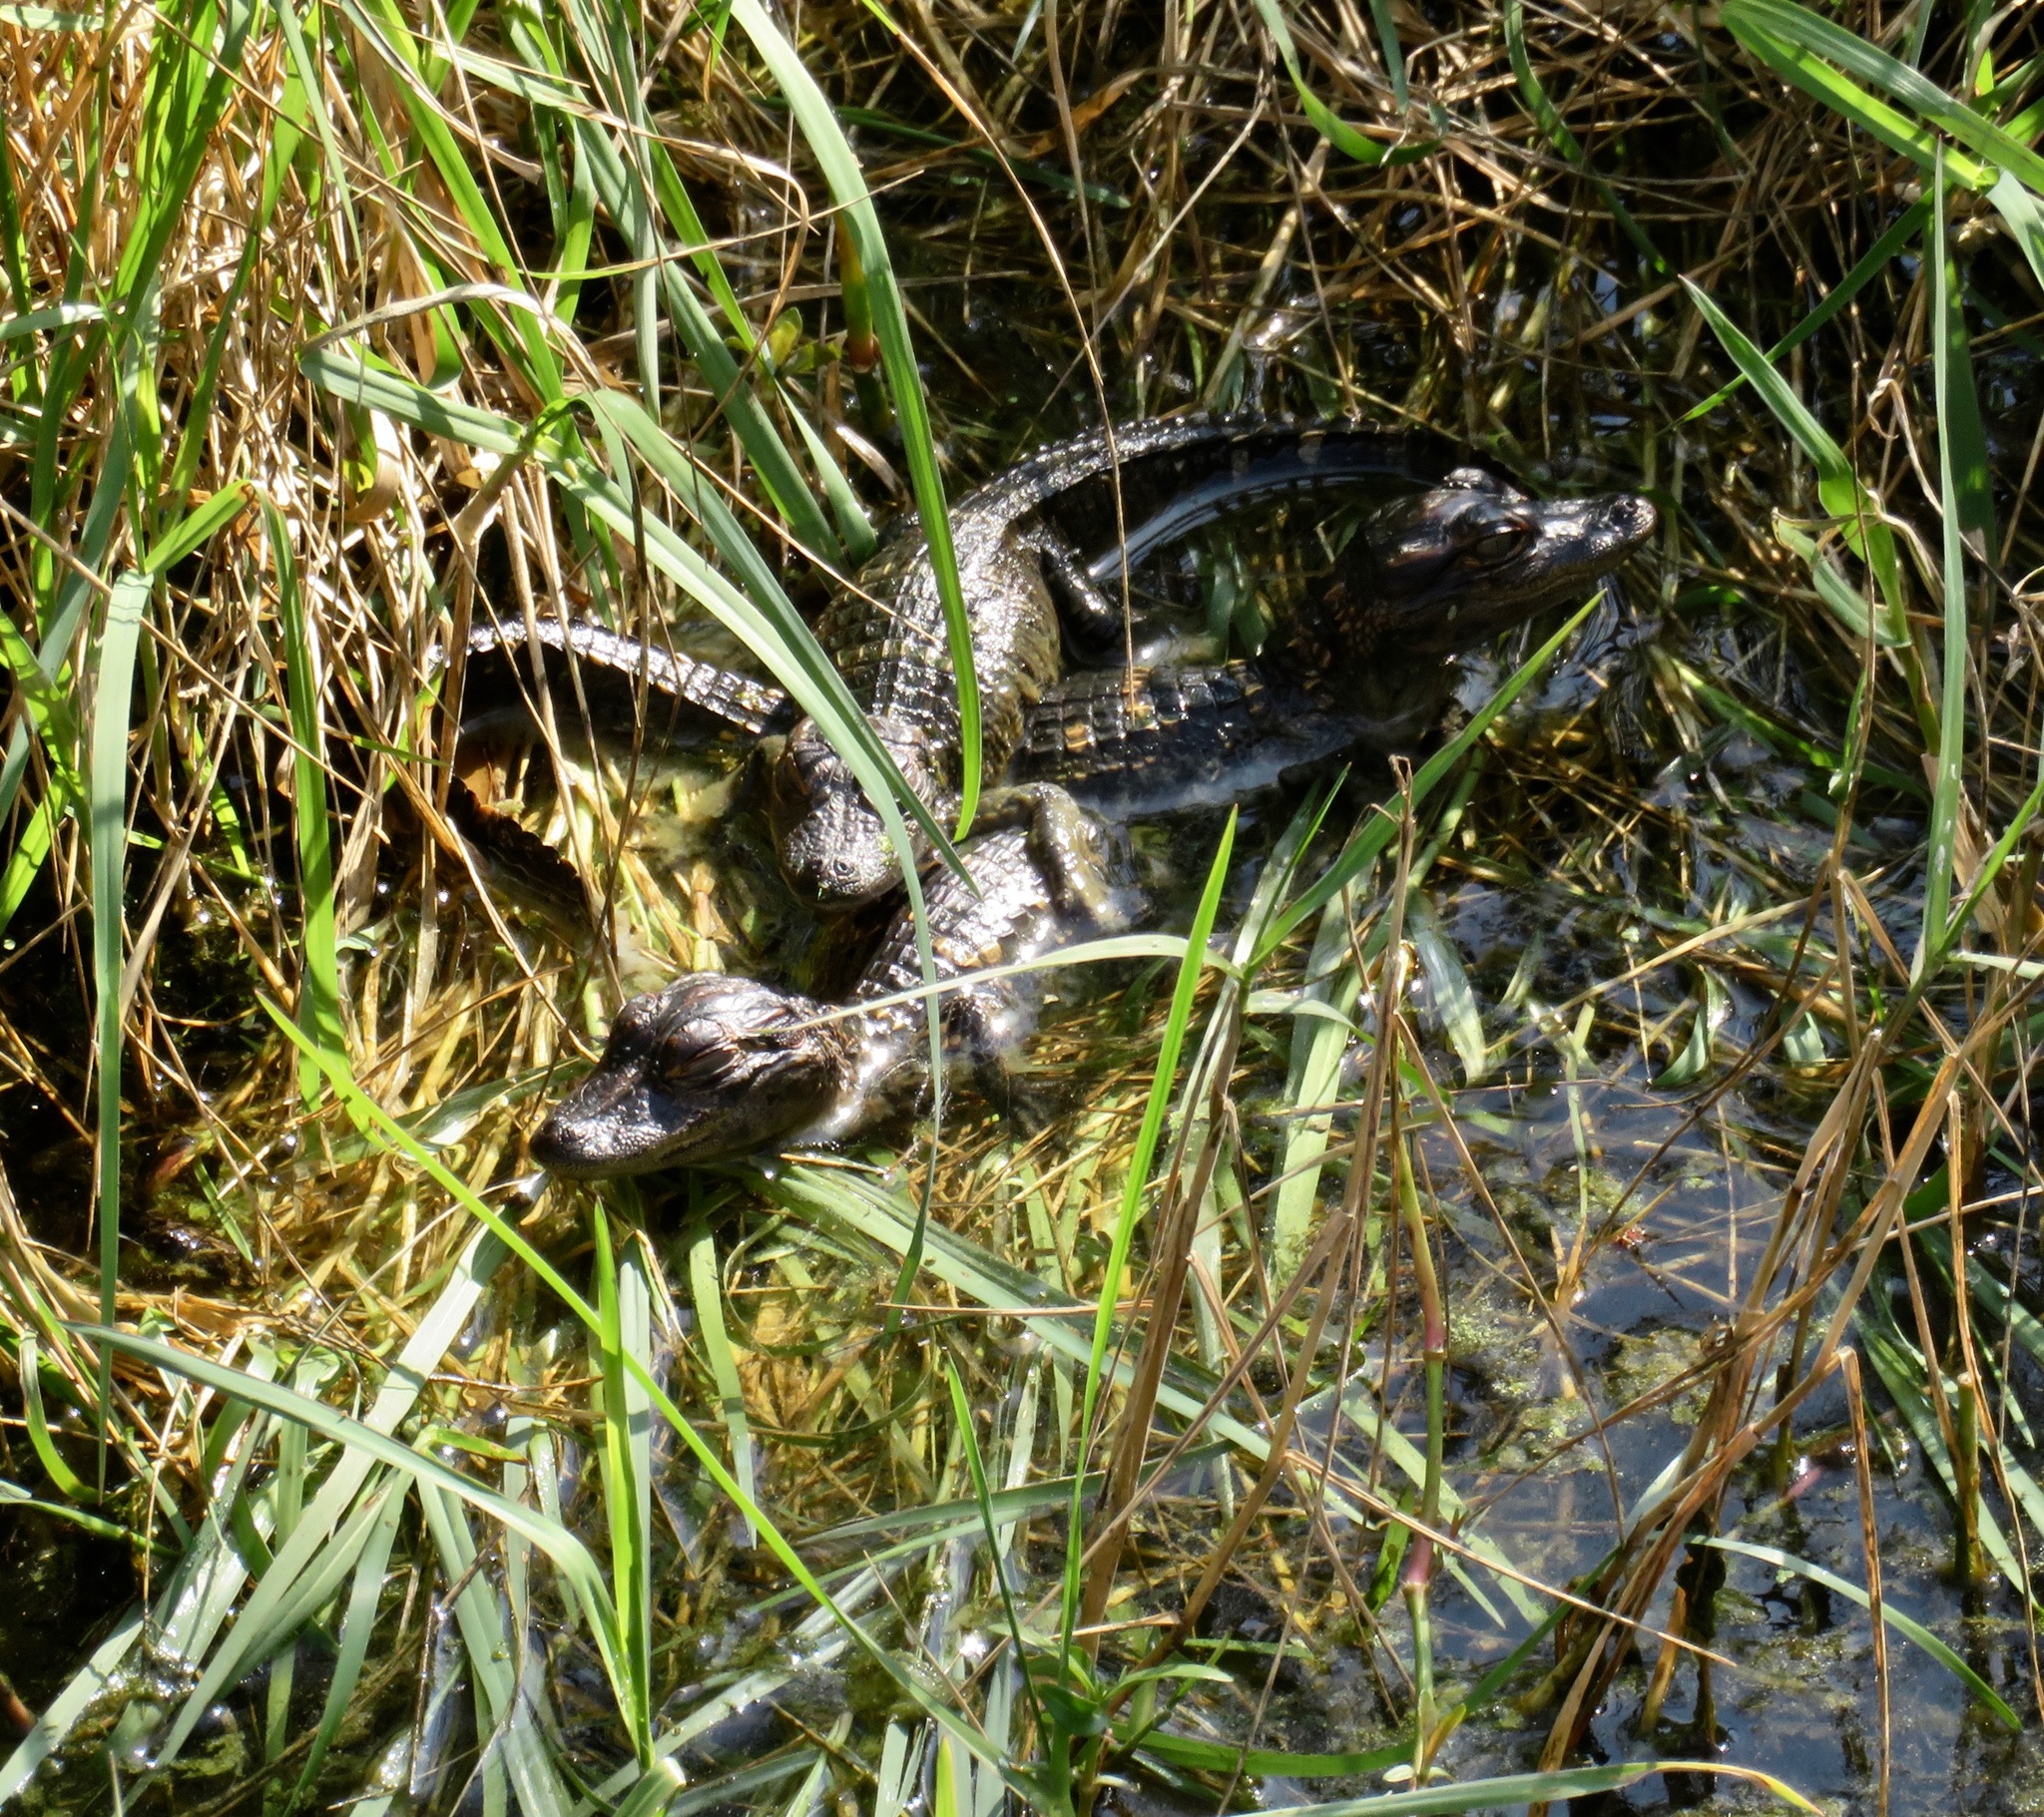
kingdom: Animalia
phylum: Chordata
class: Crocodylia
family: Alligatoridae
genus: Alligator
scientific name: Alligator mississippiensis
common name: American alligator
